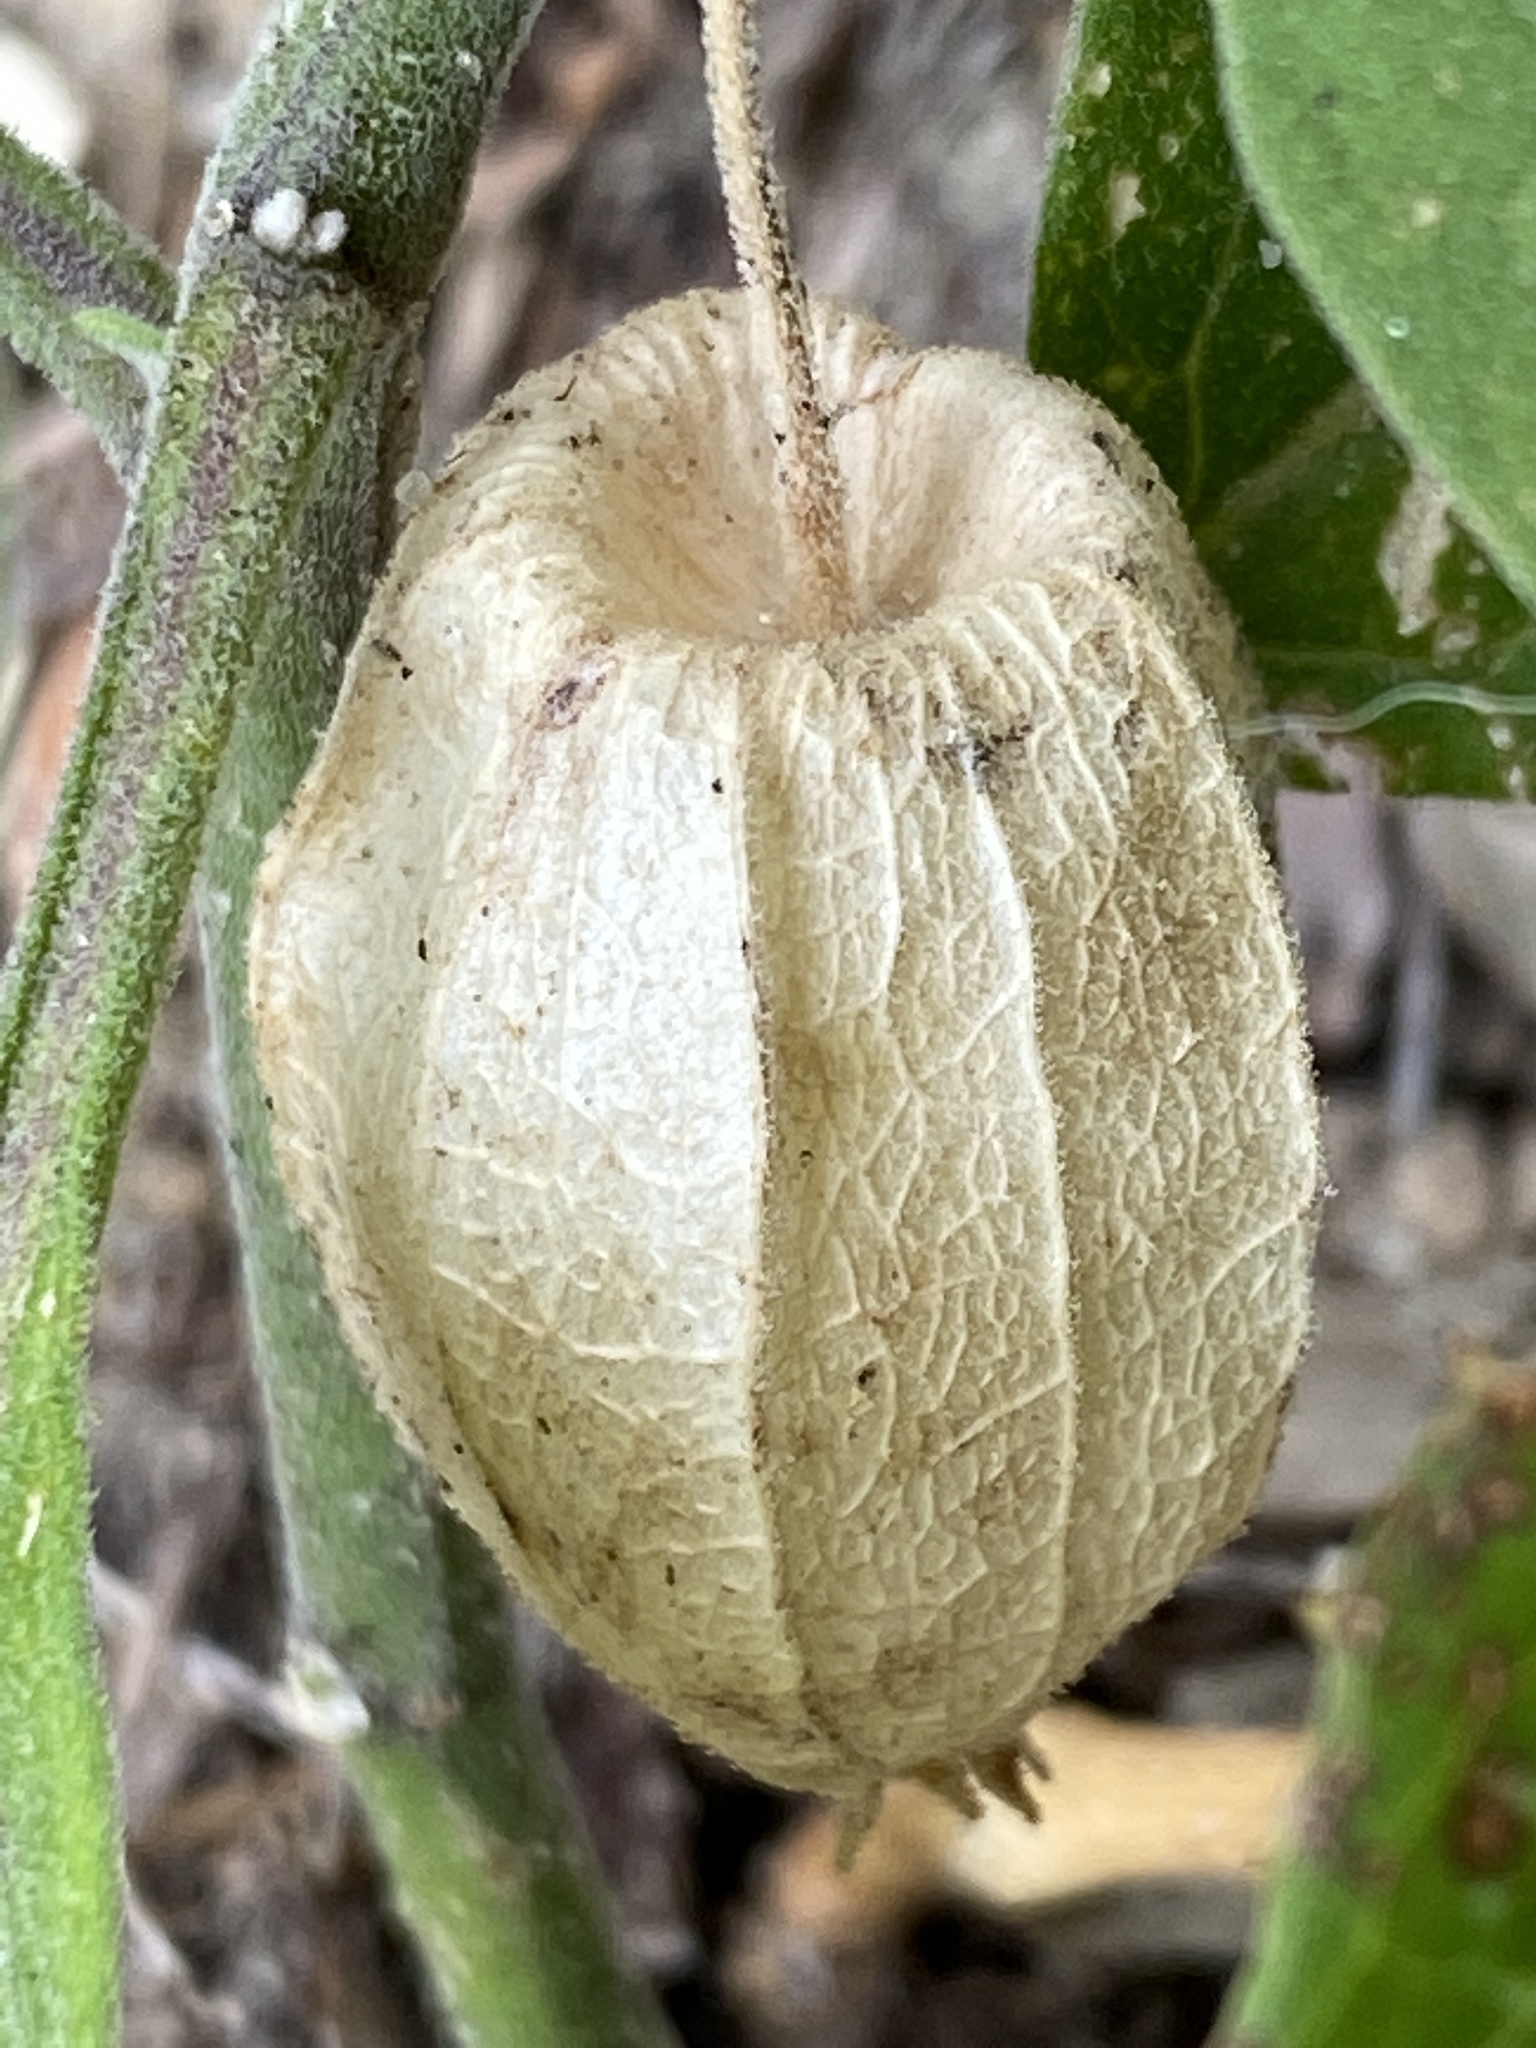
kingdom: Plantae
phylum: Tracheophyta
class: Magnoliopsida
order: Solanales
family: Solanaceae
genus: Physalis
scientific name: Physalis walteri
